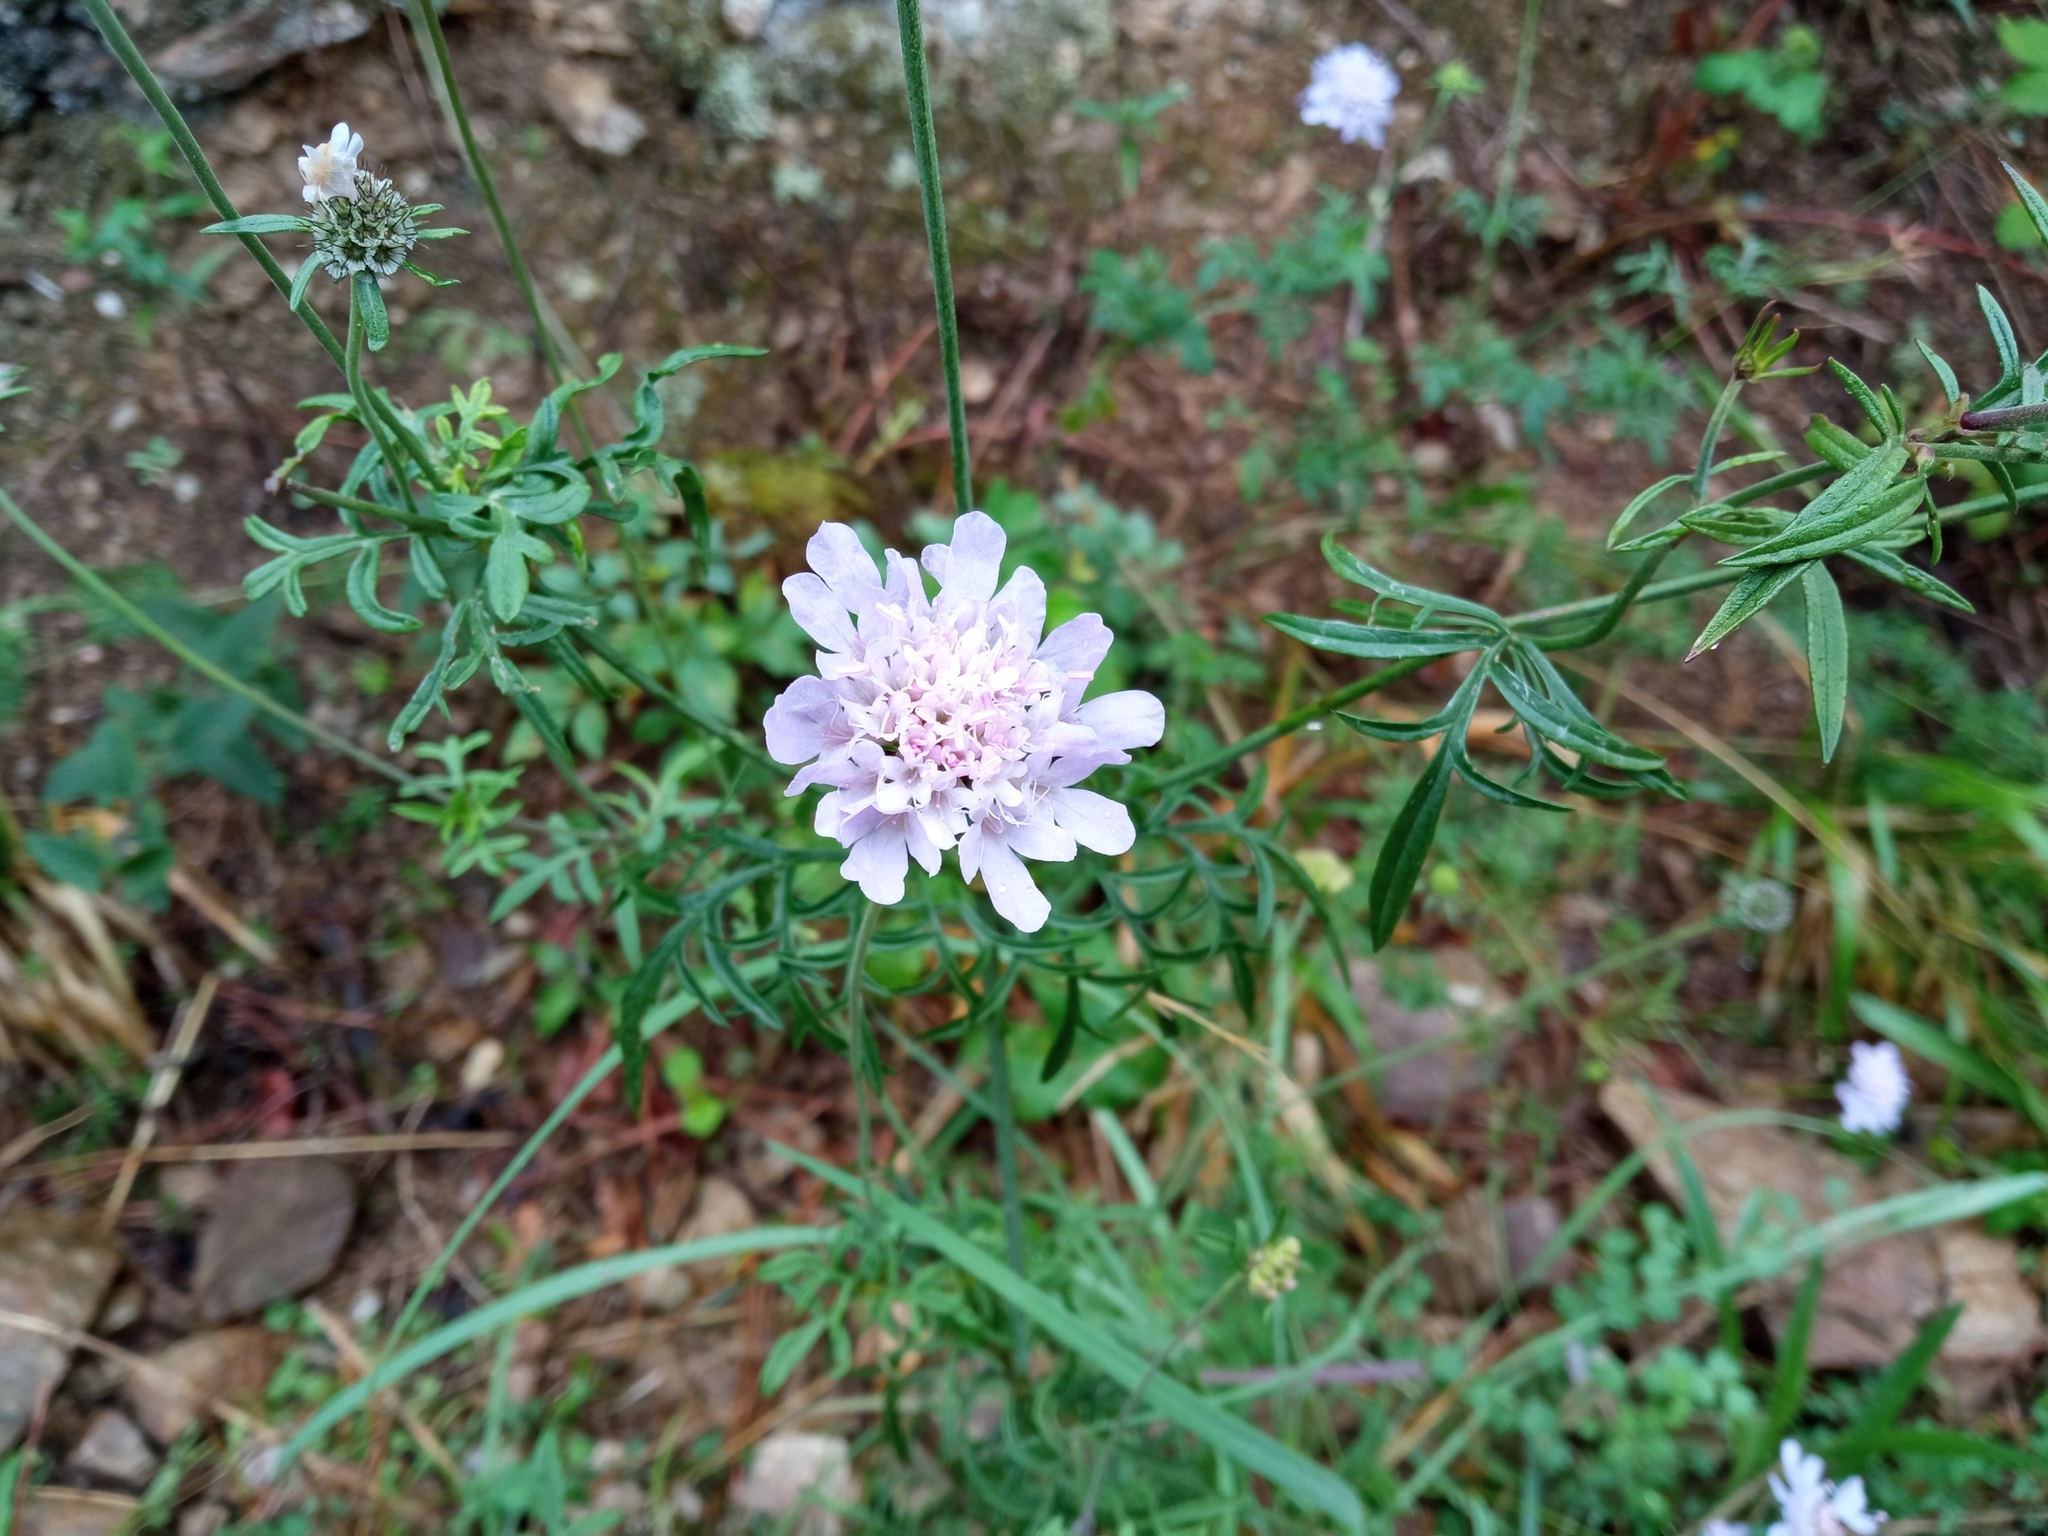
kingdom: Plantae
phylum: Tracheophyta
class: Magnoliopsida
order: Dipsacales
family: Caprifoliaceae
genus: Scabiosa
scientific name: Scabiosa columbaria
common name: Small scabious
